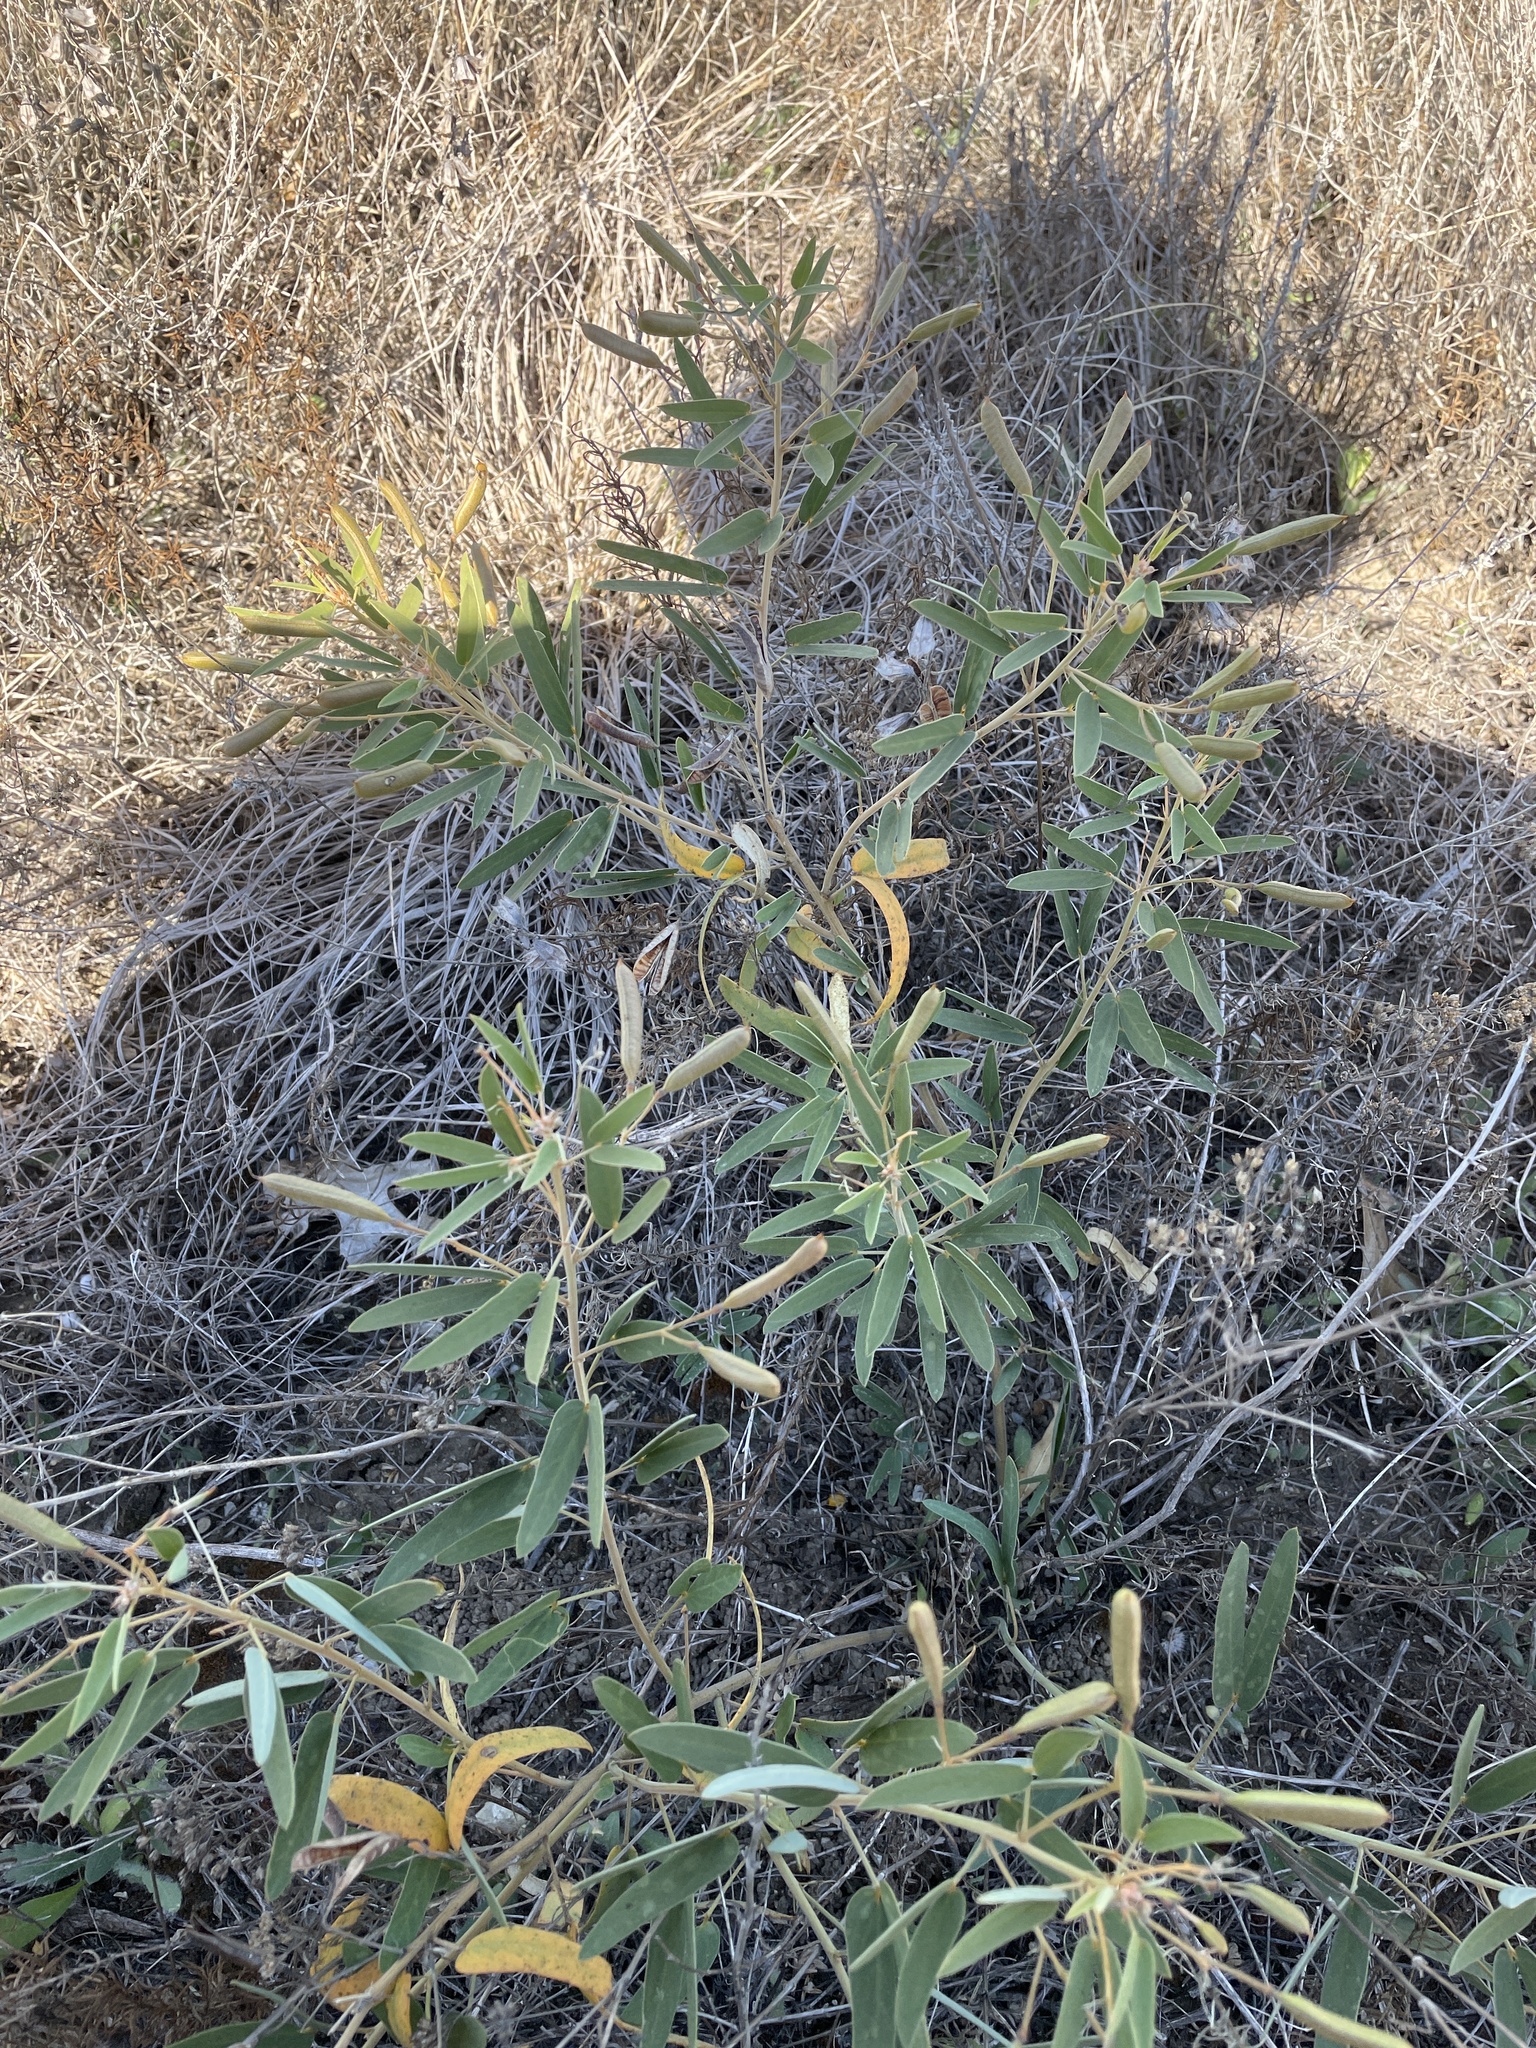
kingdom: Plantae
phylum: Tracheophyta
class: Magnoliopsida
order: Fabales
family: Fabaceae
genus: Senna
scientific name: Senna roemeriana
